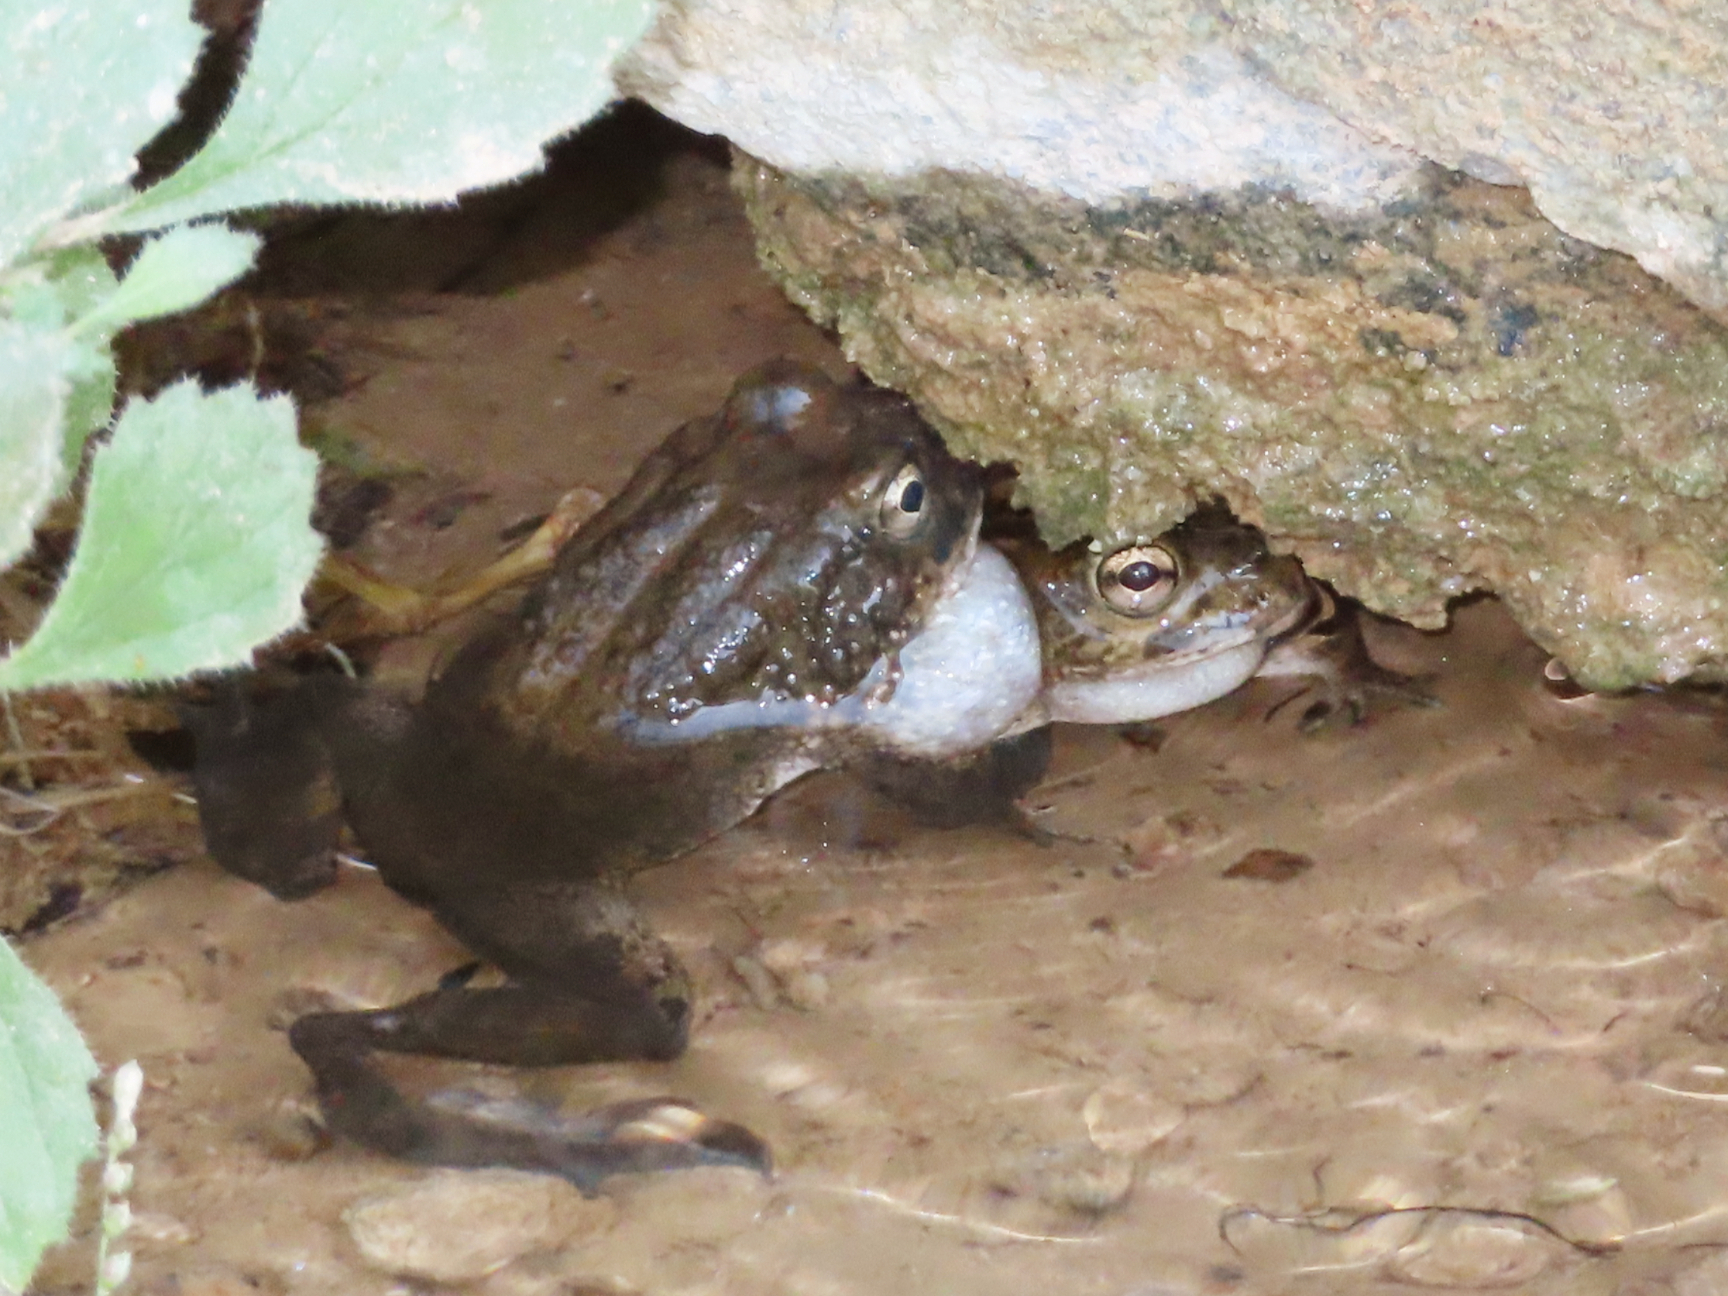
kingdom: Animalia
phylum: Chordata
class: Amphibia
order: Anura
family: Bufonidae
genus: Sclerophrys
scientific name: Sclerophrys arabica
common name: Arabian toad
